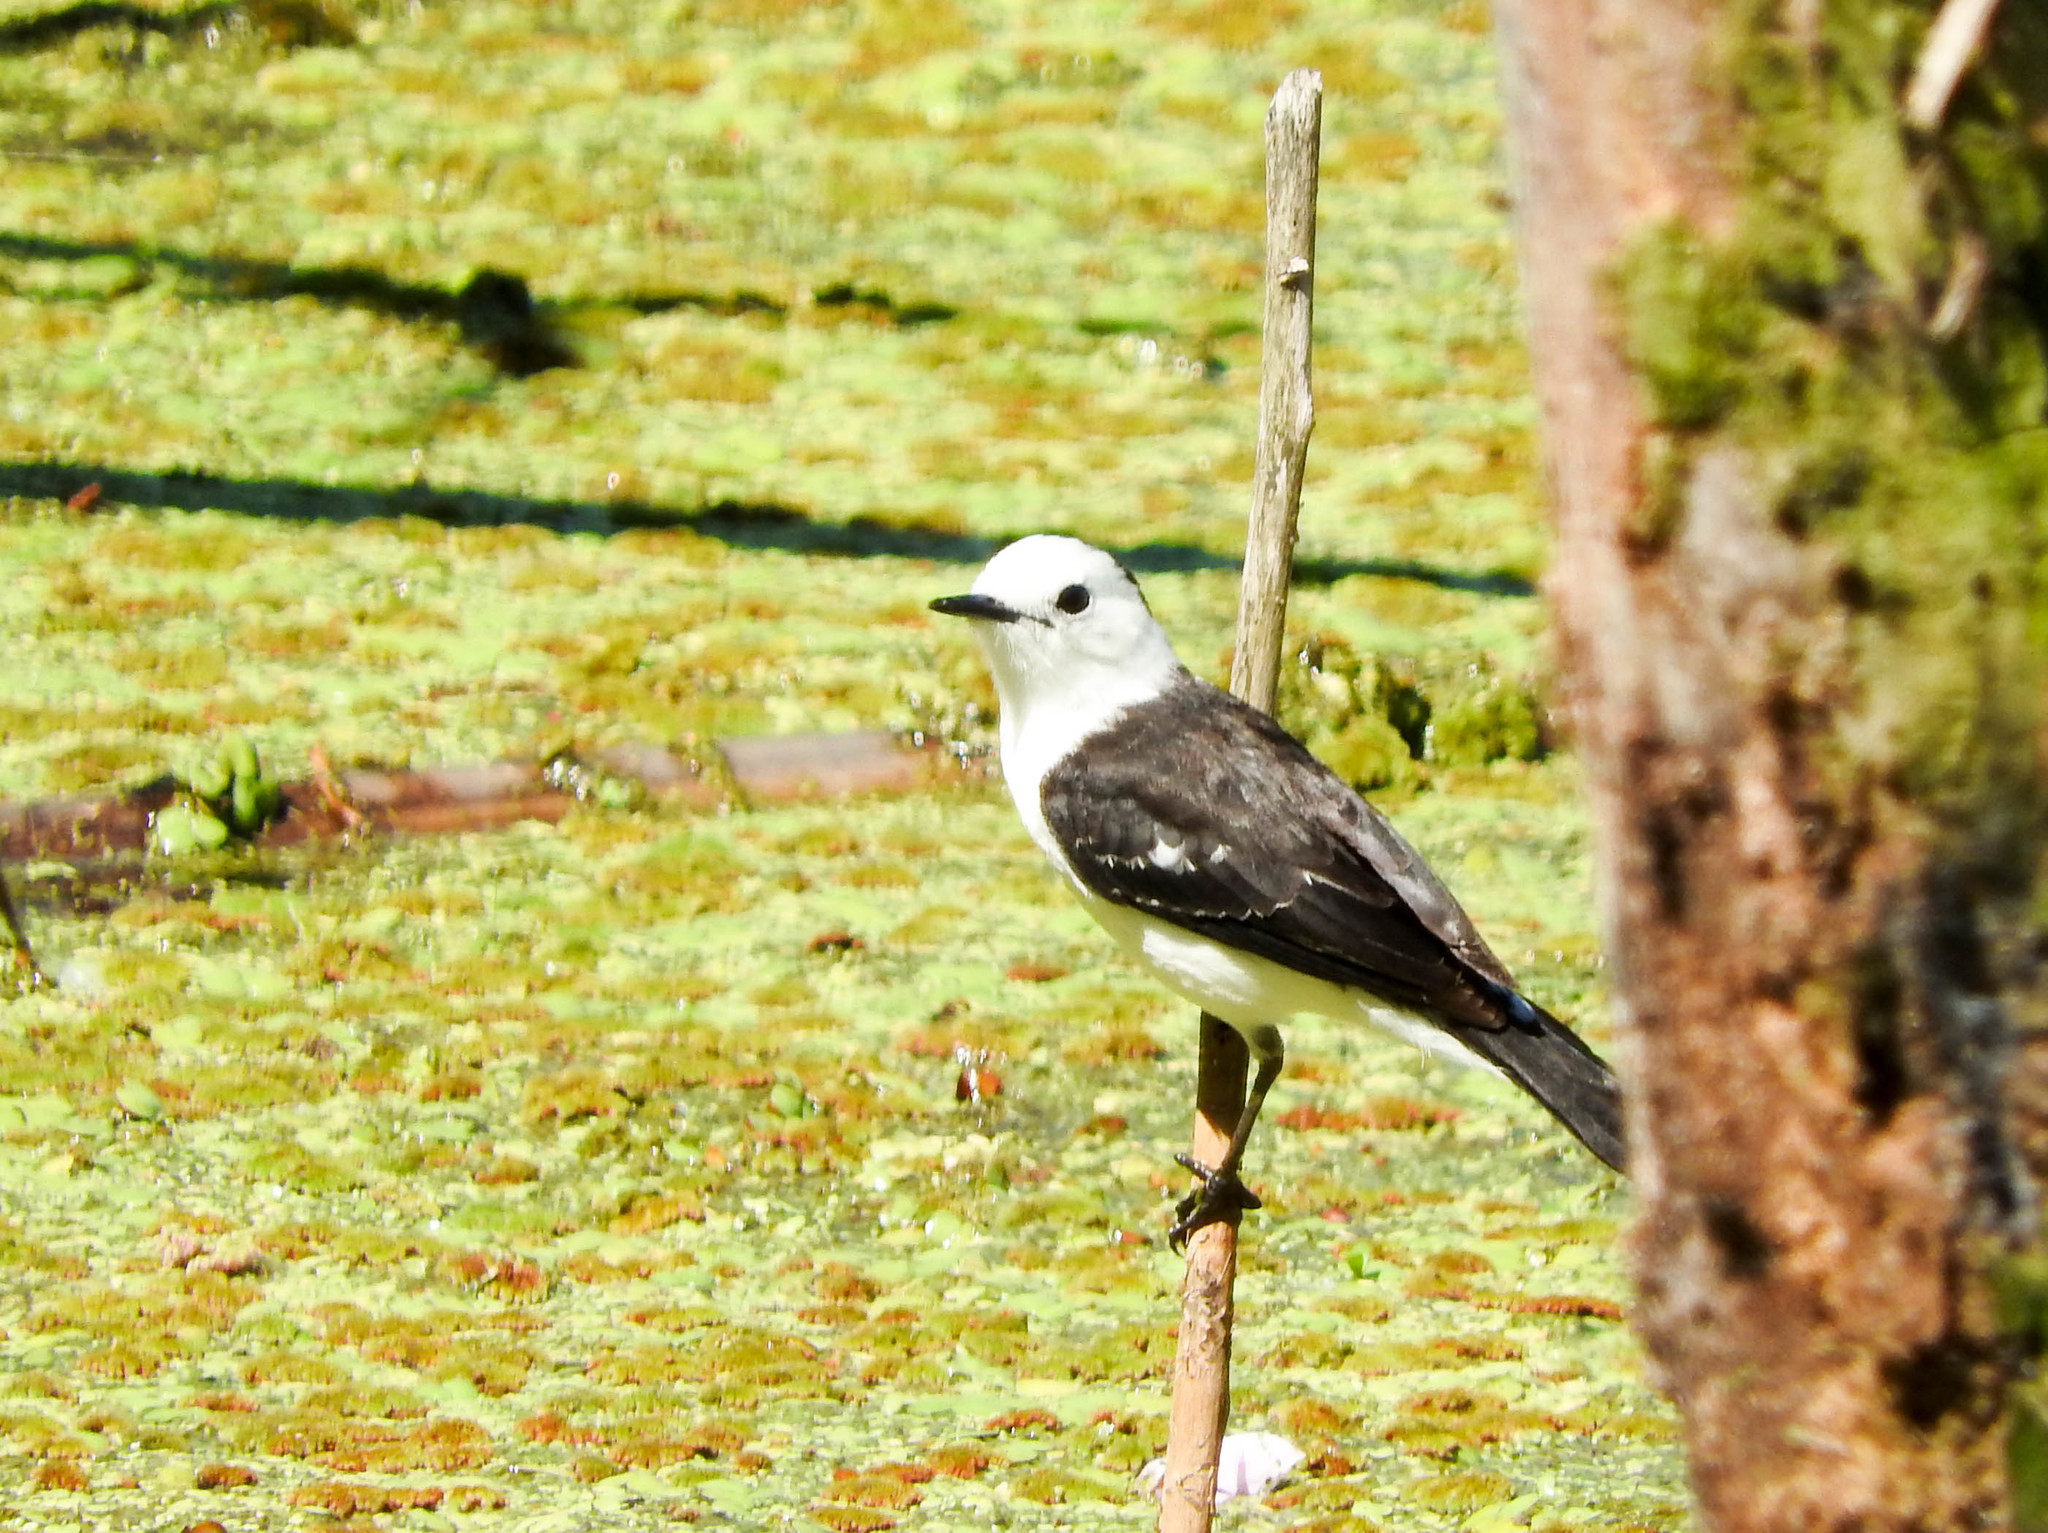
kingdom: Animalia
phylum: Chordata
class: Aves
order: Passeriformes
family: Tyrannidae
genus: Fluvicola
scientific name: Fluvicola pica
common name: Pied water-tyrant
